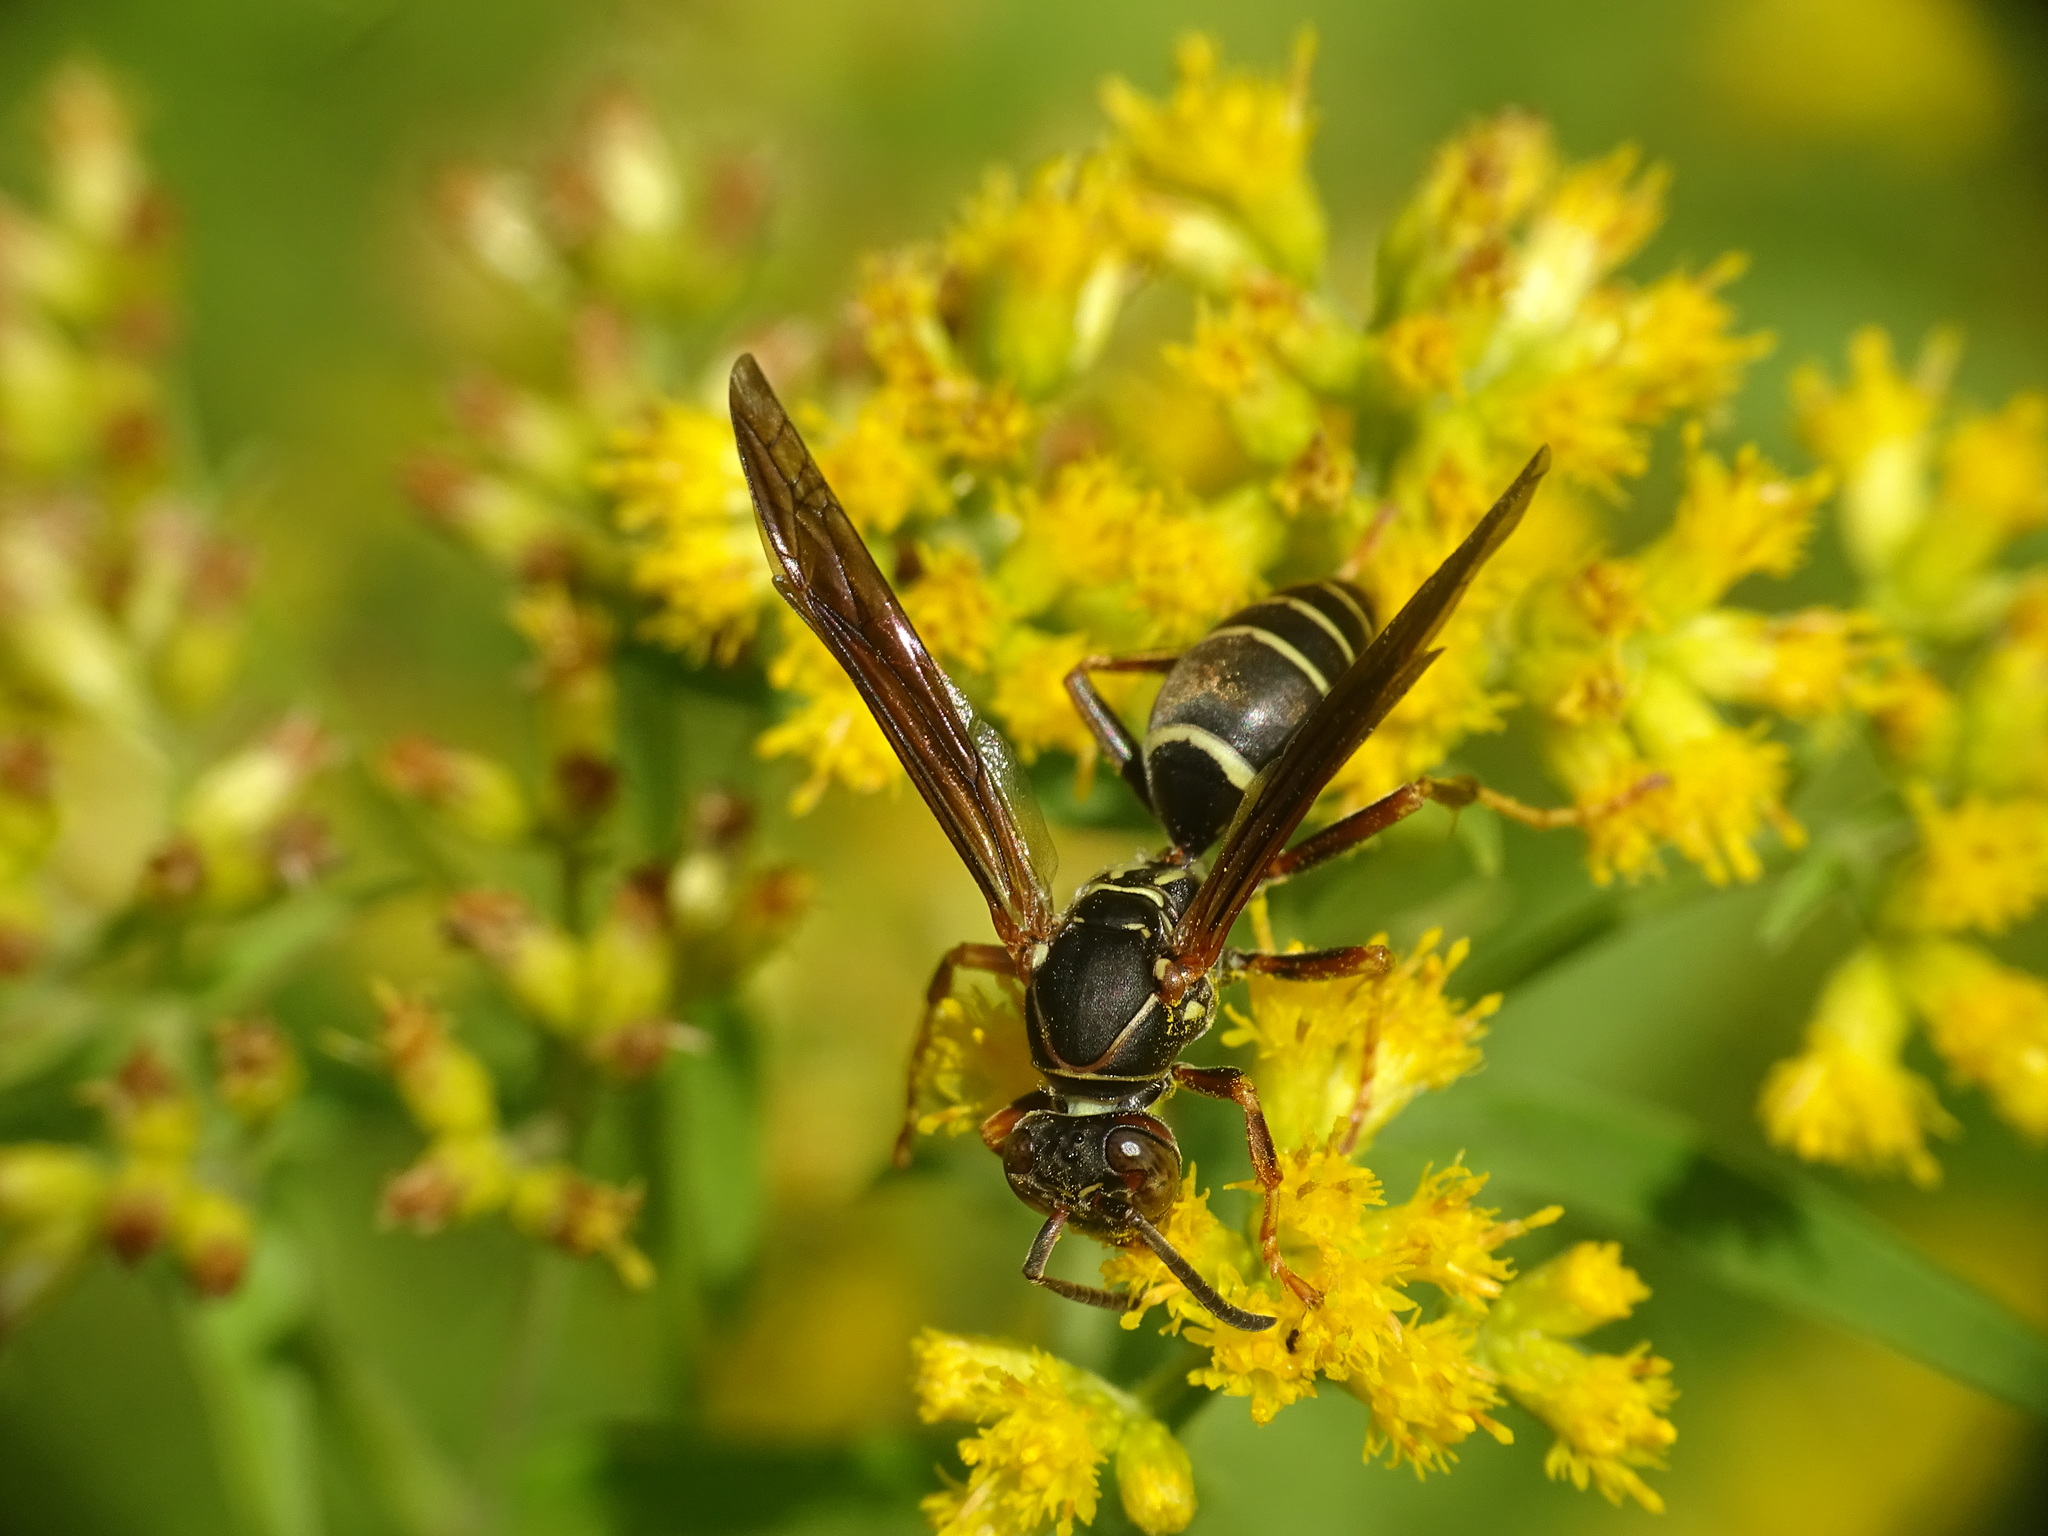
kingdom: Animalia
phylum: Arthropoda
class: Insecta
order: Hymenoptera
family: Eumenidae
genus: Polistes
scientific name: Polistes fuscatus
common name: Dark paper wasp
